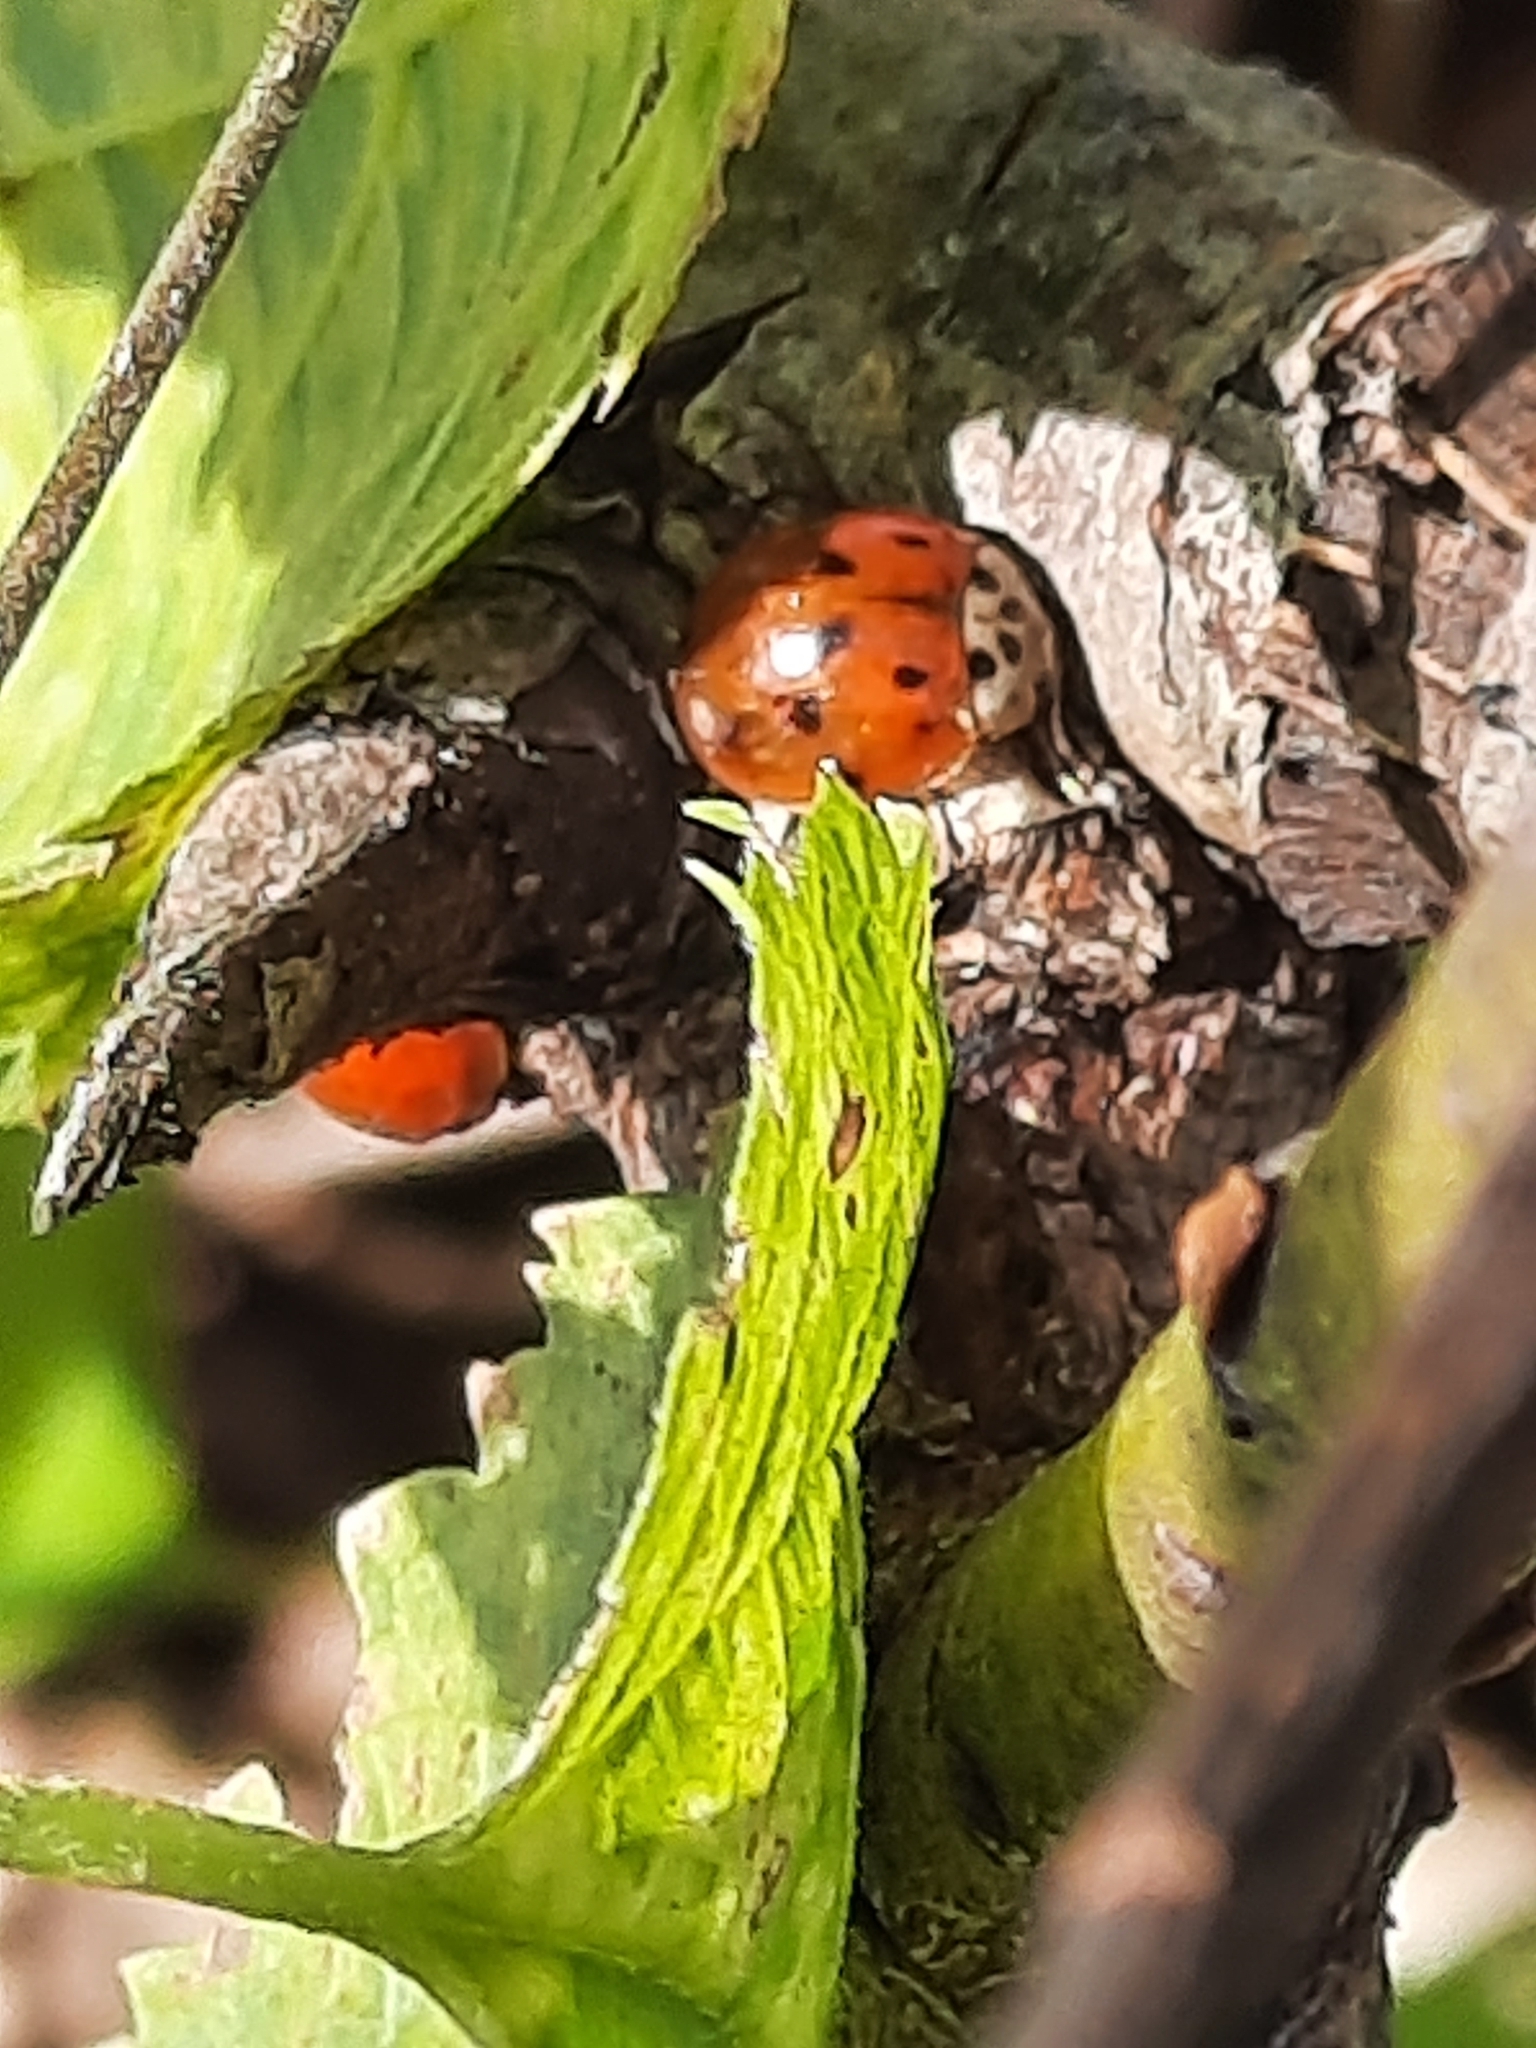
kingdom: Animalia
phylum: Arthropoda
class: Insecta
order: Coleoptera
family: Coccinellidae
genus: Harmonia
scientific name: Harmonia axyridis
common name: Harlequin ladybird
